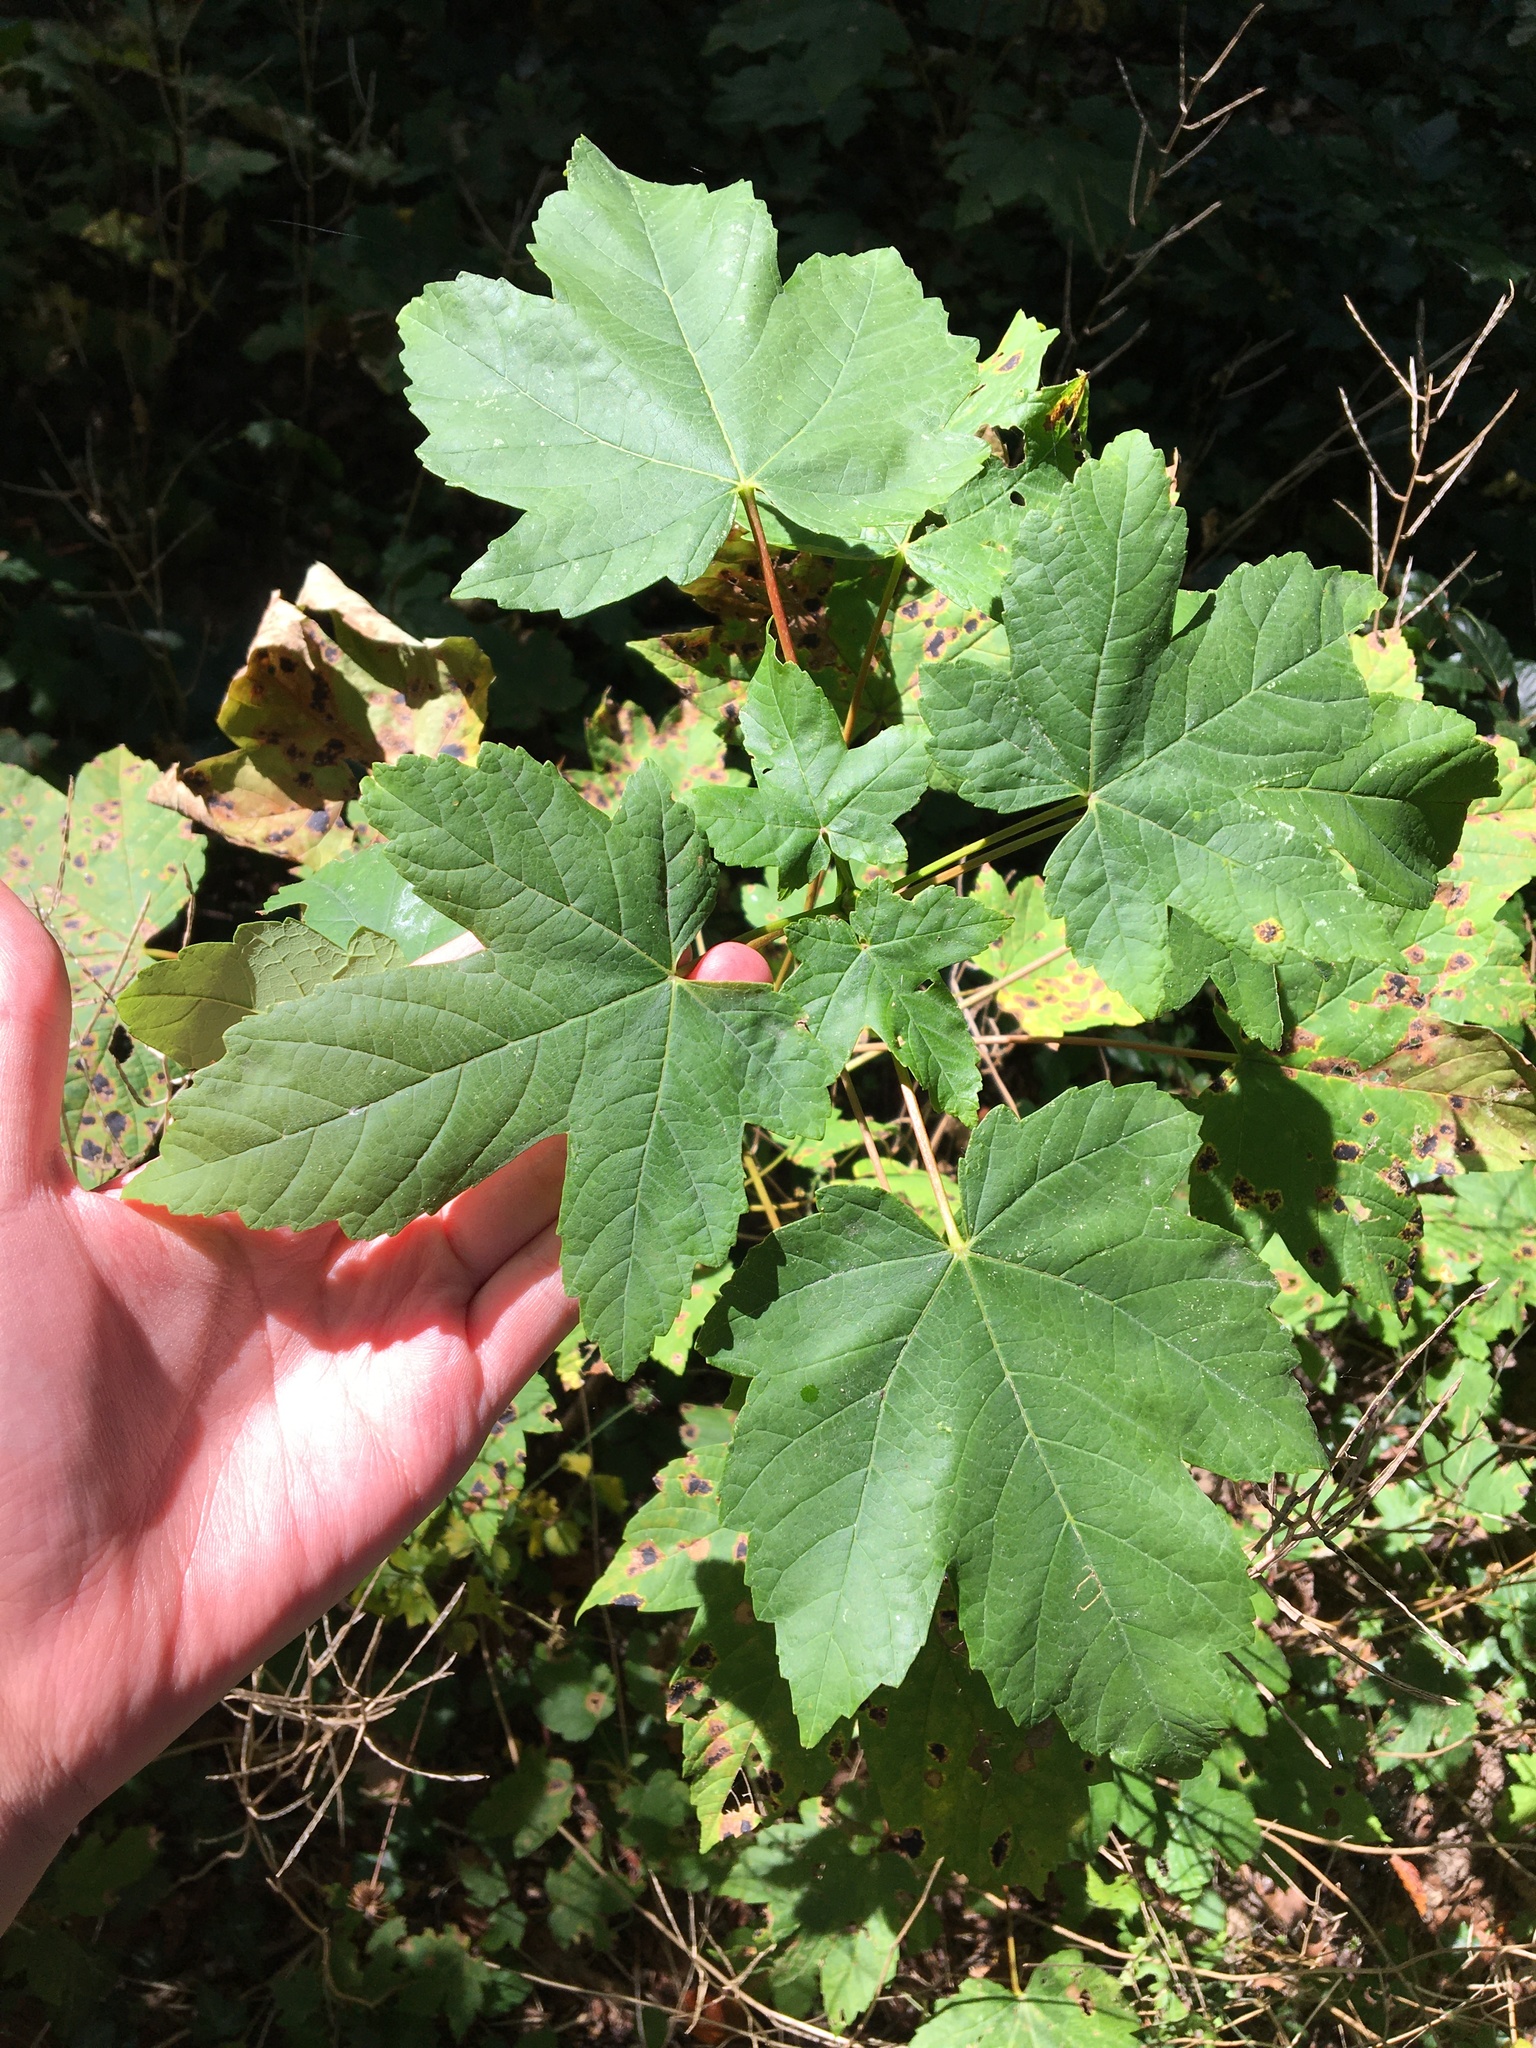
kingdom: Plantae
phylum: Tracheophyta
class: Magnoliopsida
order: Sapindales
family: Sapindaceae
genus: Acer
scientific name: Acer pseudoplatanus
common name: Sycamore
